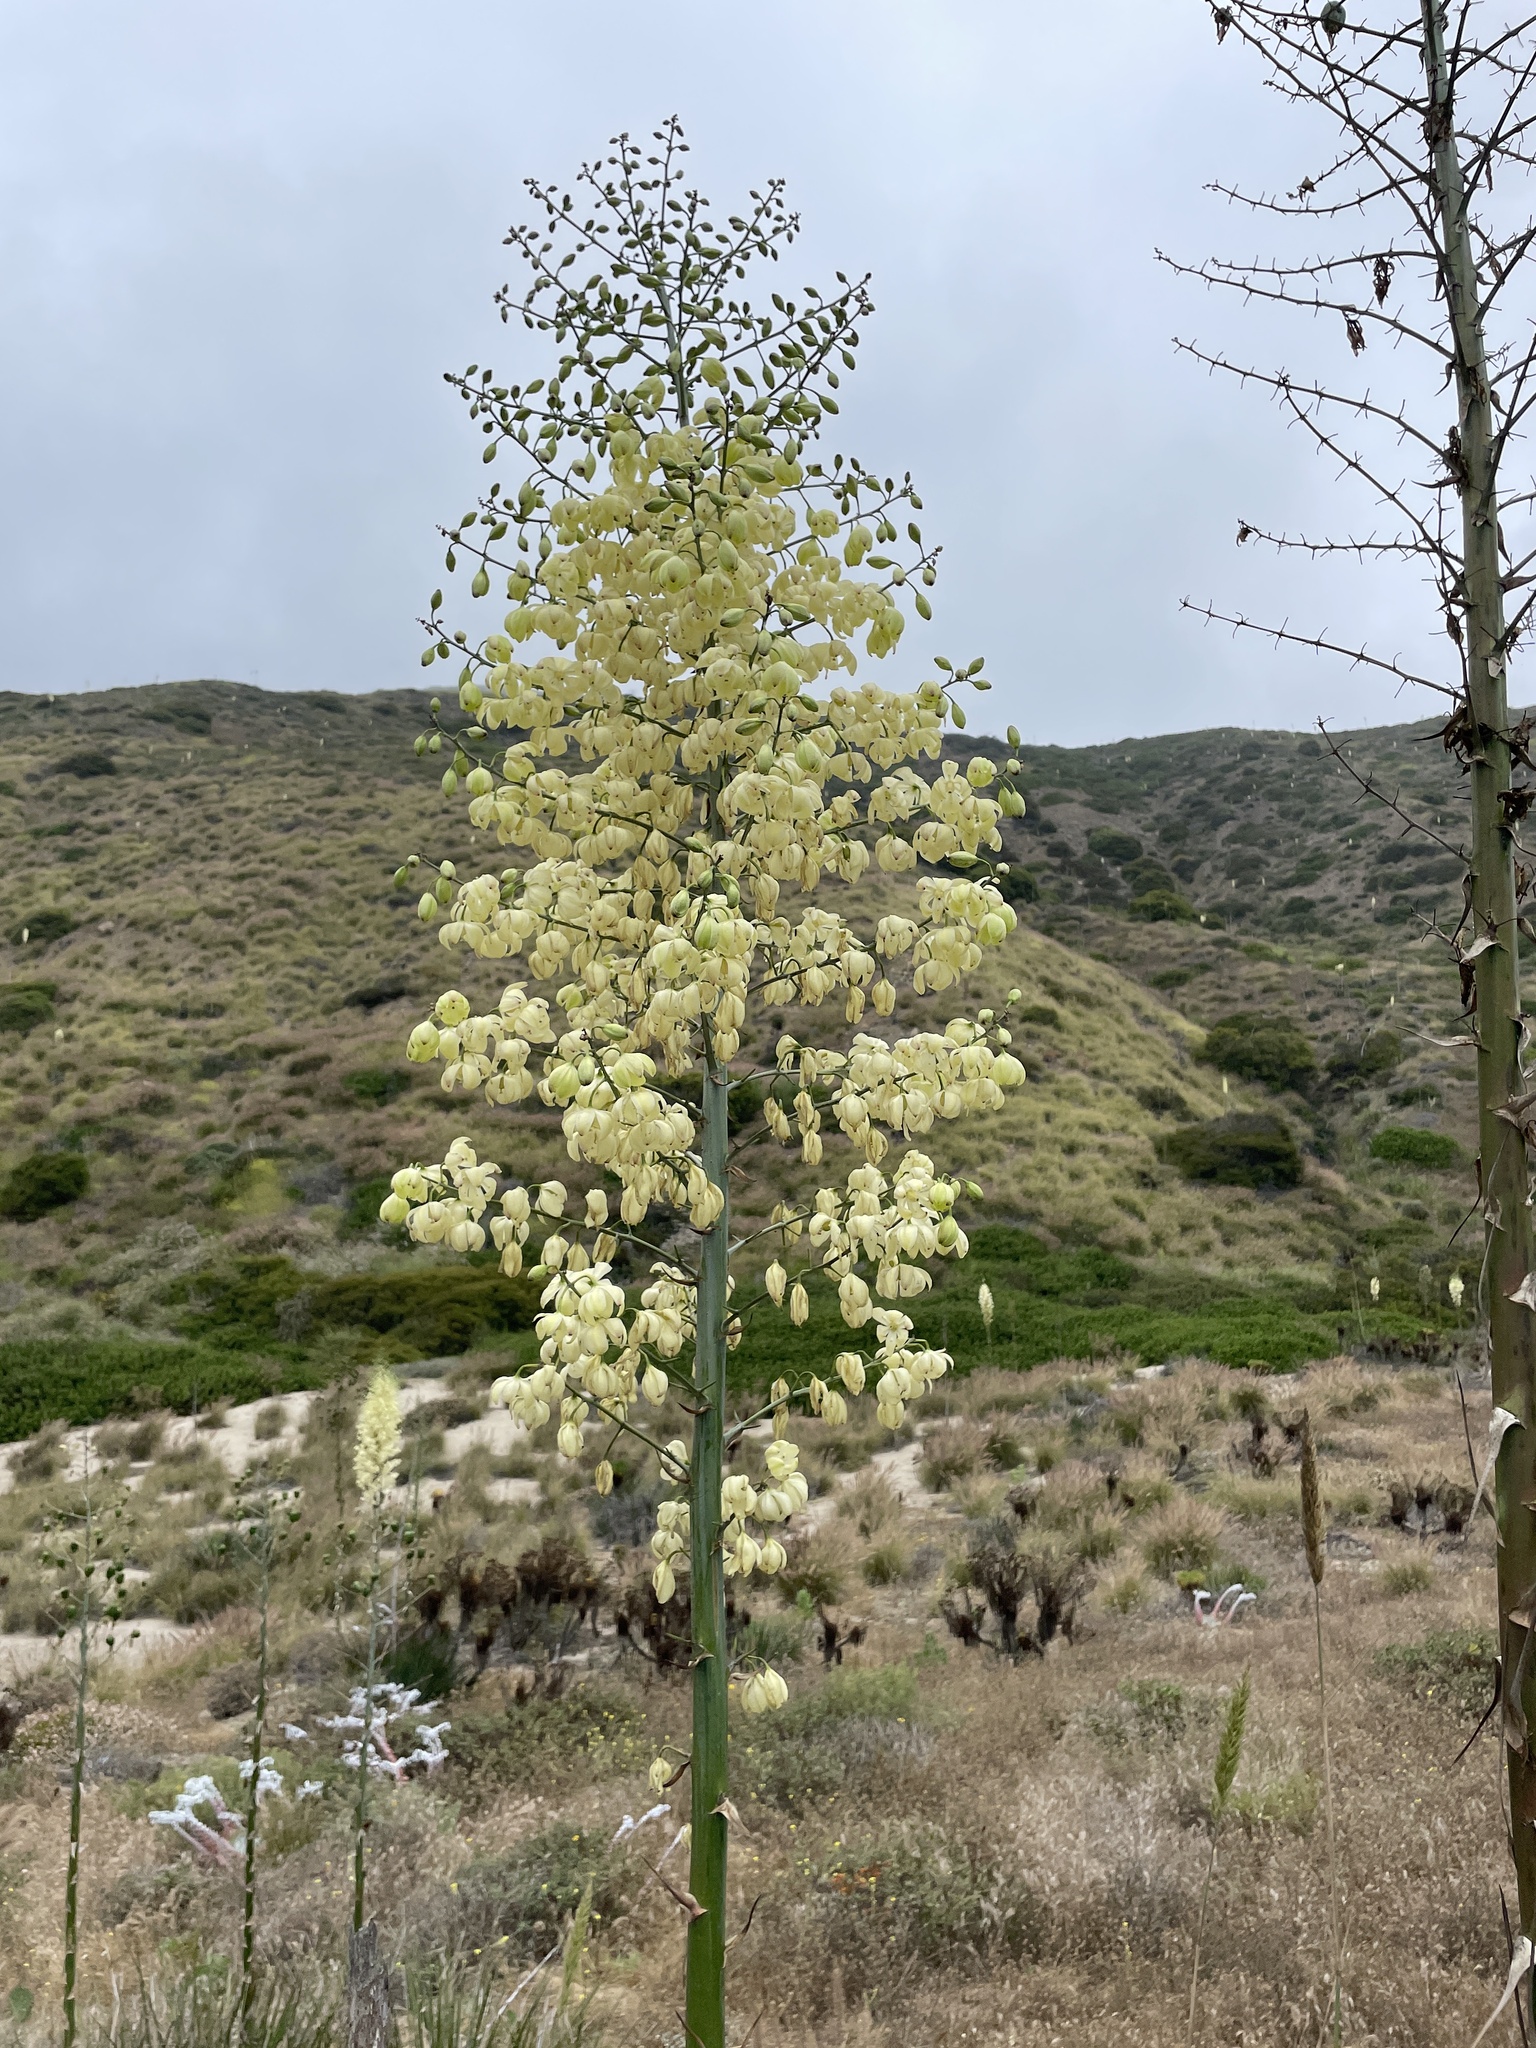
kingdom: Plantae
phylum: Tracheophyta
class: Liliopsida
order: Asparagales
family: Asparagaceae
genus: Hesperoyucca
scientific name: Hesperoyucca whipplei
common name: Our lord's-candle
